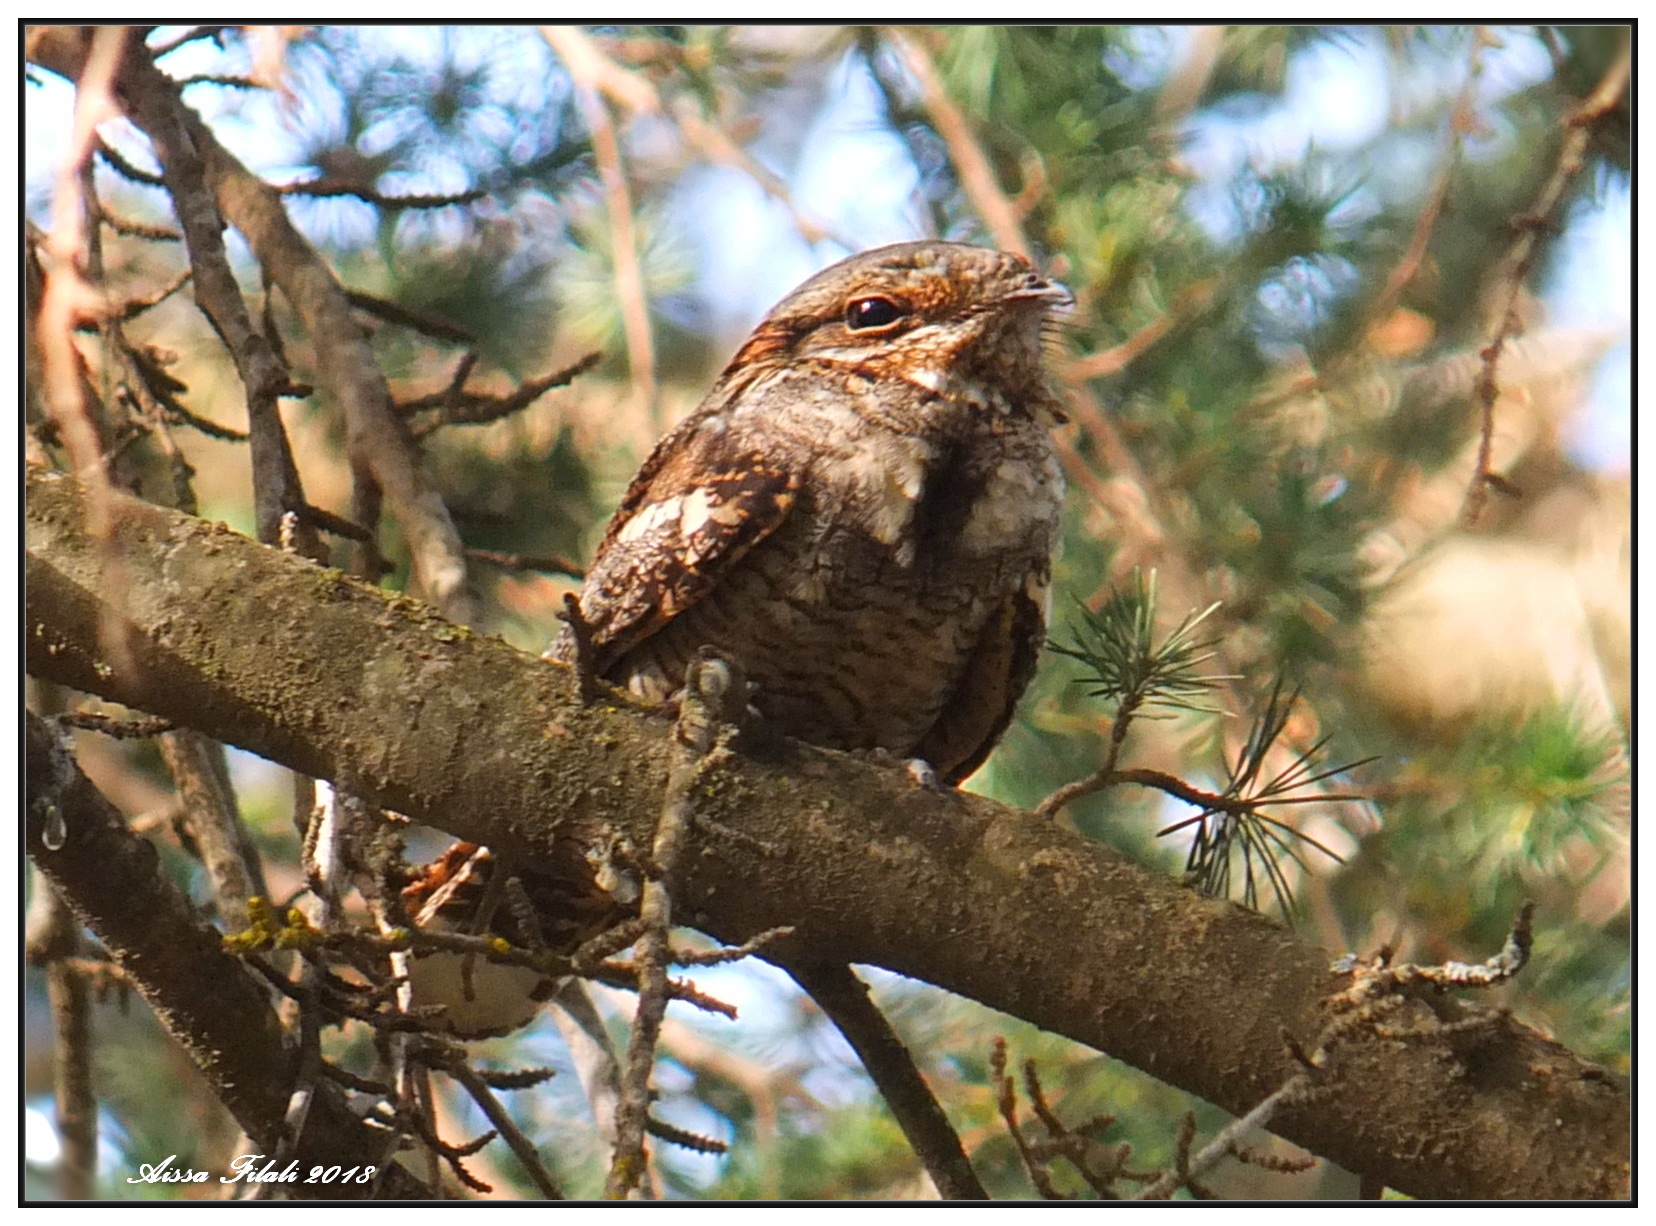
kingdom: Animalia
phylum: Chordata
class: Aves
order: Caprimulgiformes
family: Caprimulgidae
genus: Caprimulgus
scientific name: Caprimulgus ruficollis
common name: Red-necked nightjar
